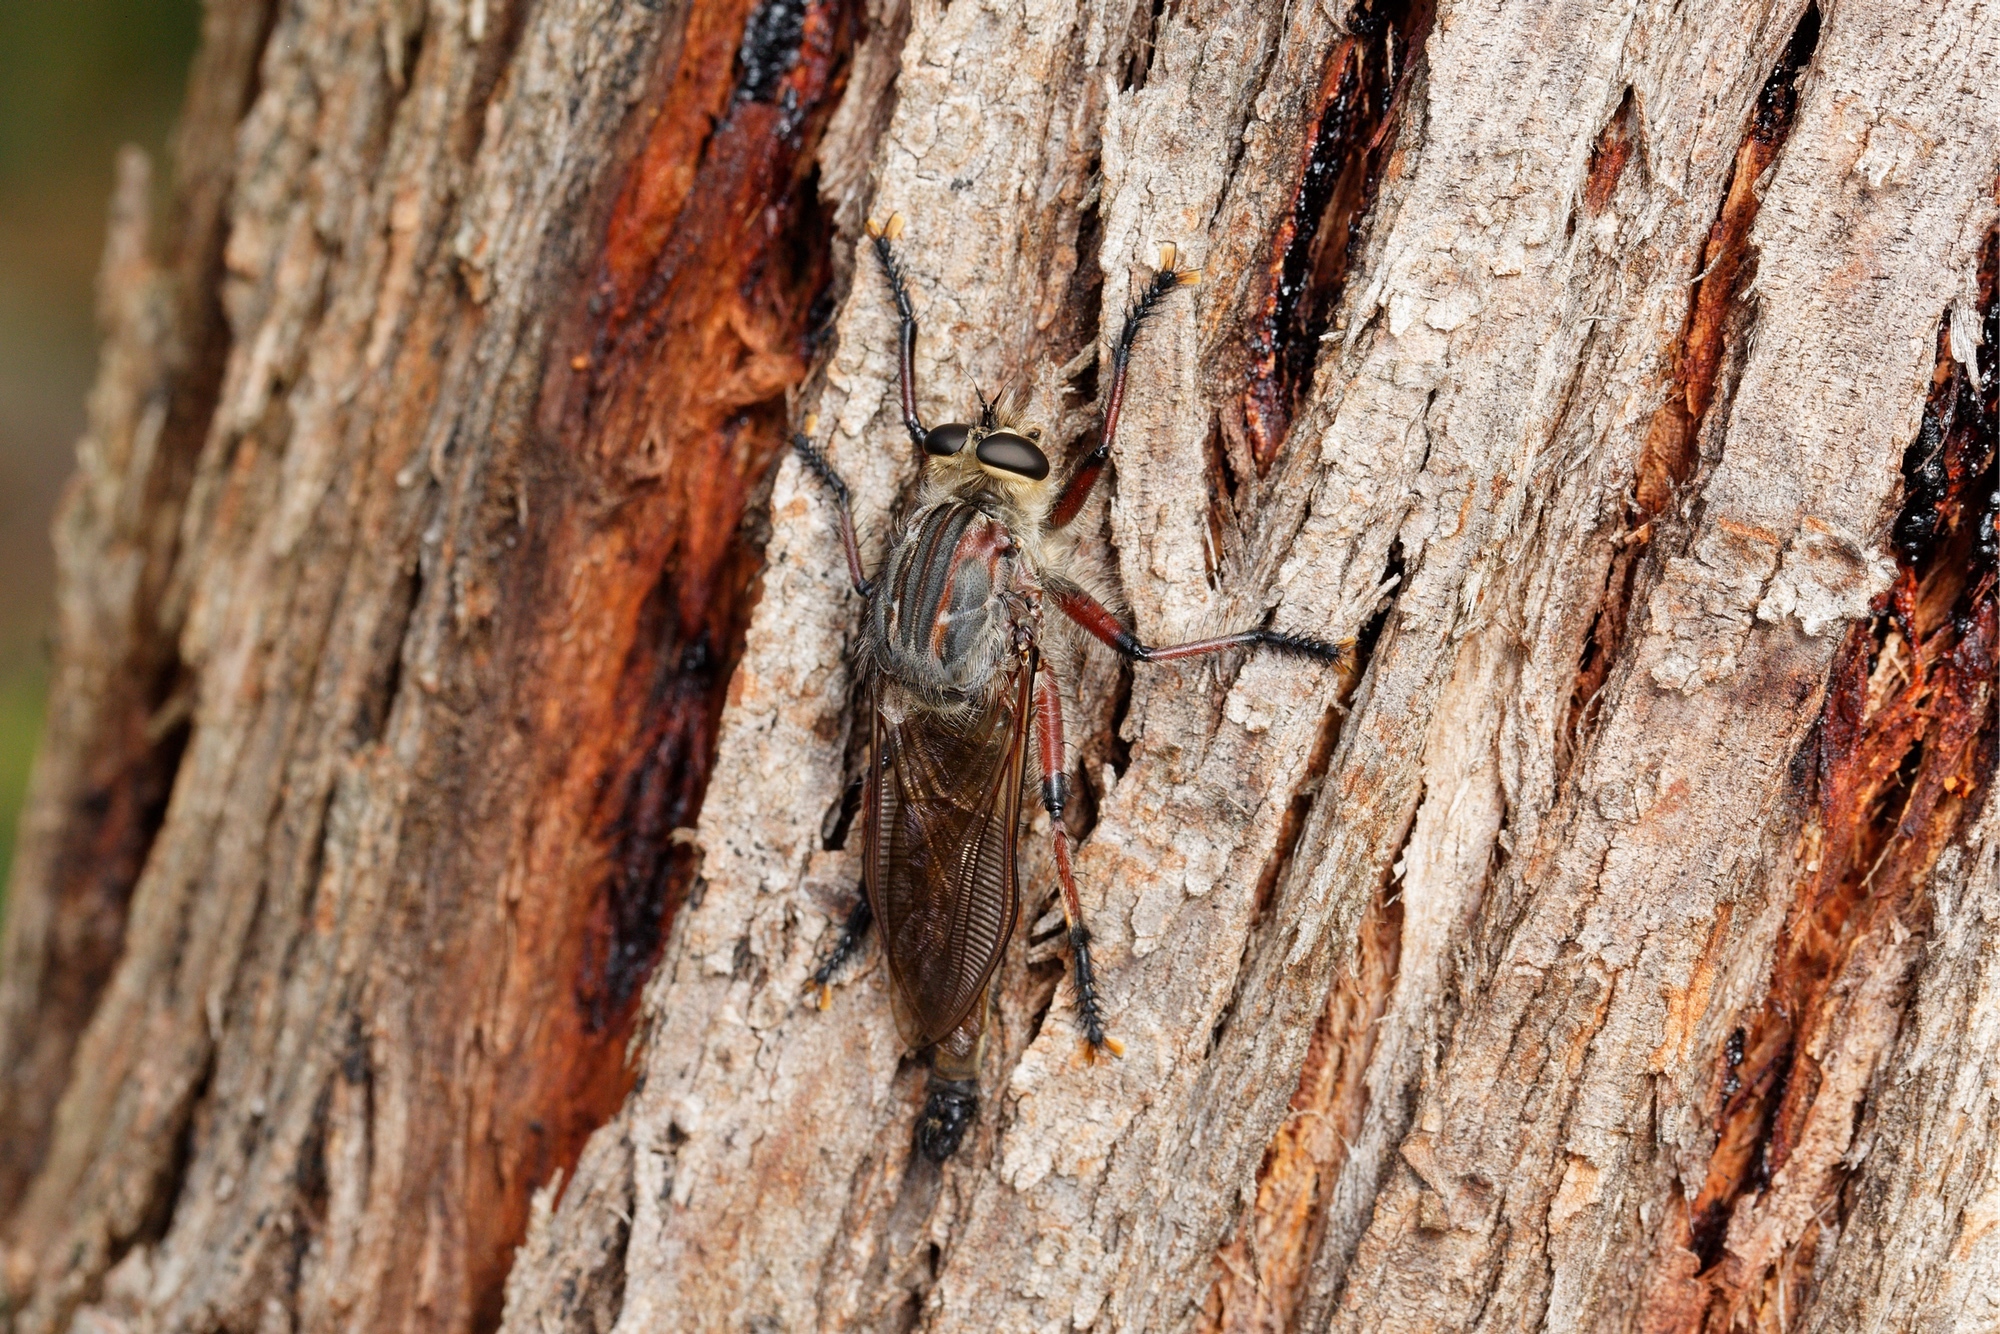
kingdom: Animalia
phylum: Arthropoda
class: Insecta
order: Diptera
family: Asilidae
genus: Neoaratus
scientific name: Neoaratus hercules
